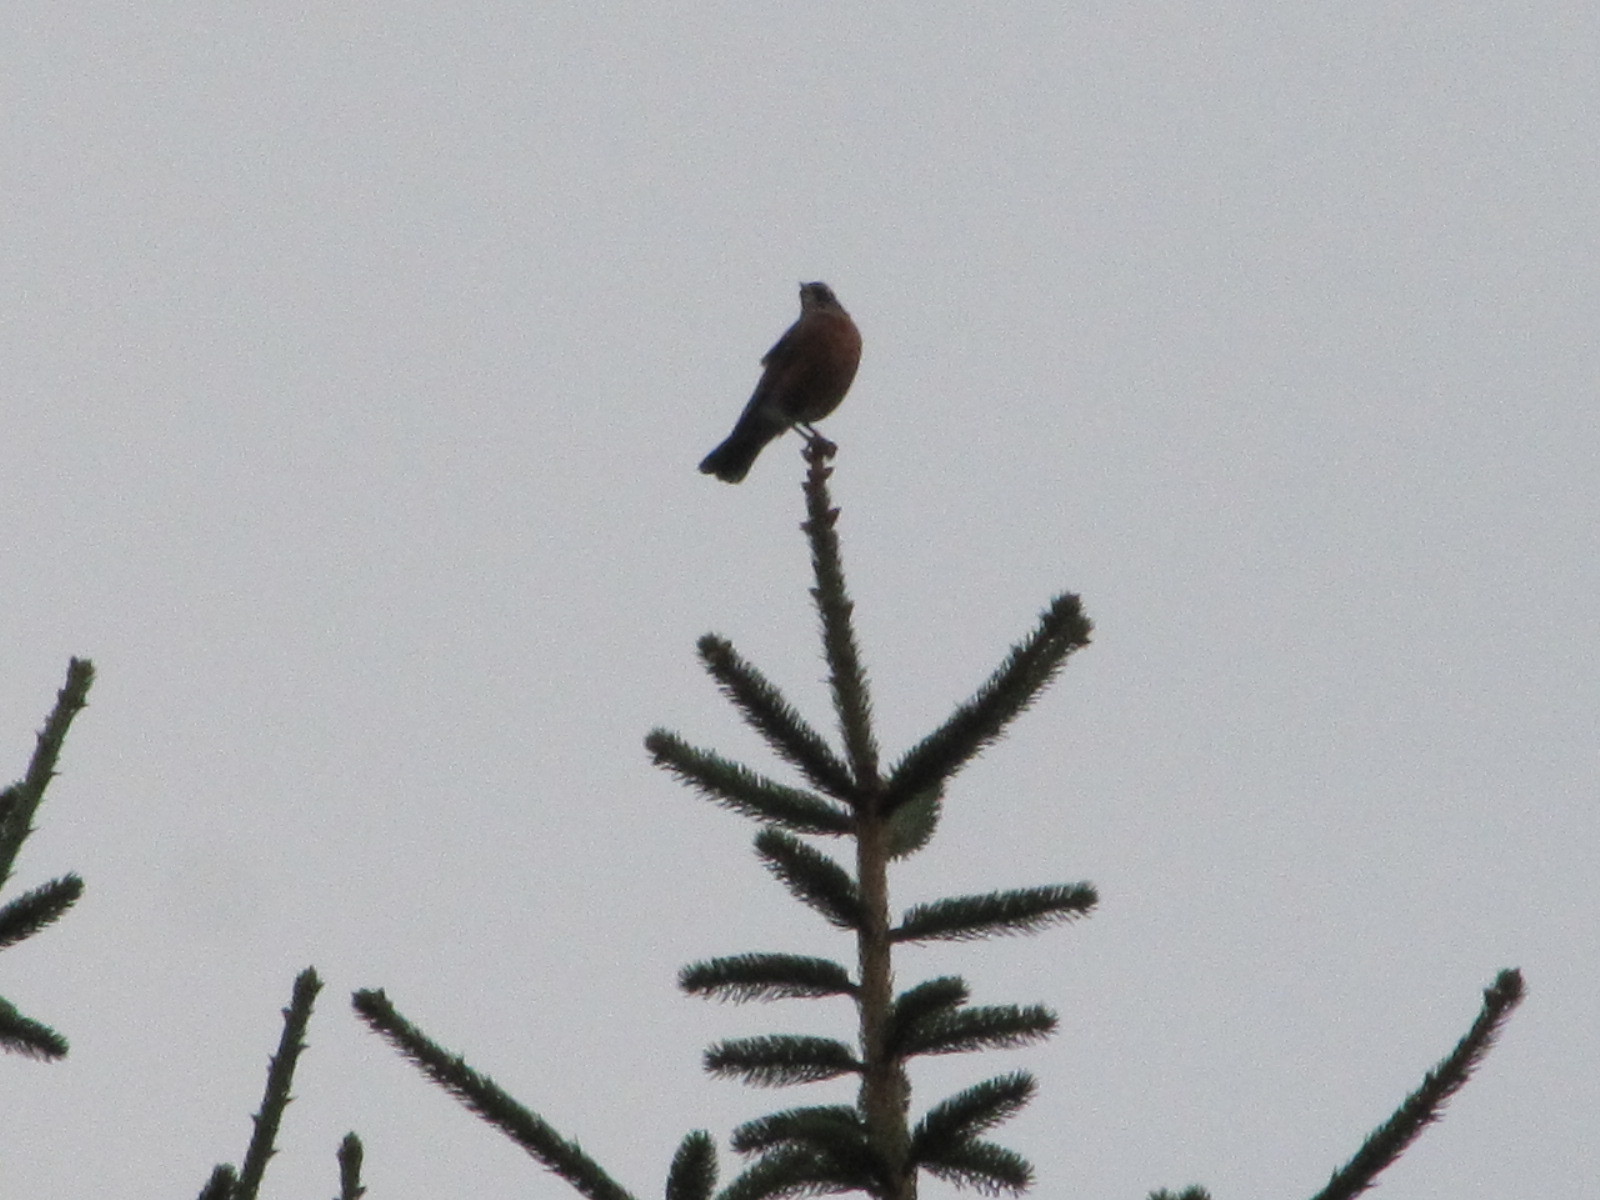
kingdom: Animalia
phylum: Chordata
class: Aves
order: Passeriformes
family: Turdidae
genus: Turdus
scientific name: Turdus migratorius
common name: American robin
